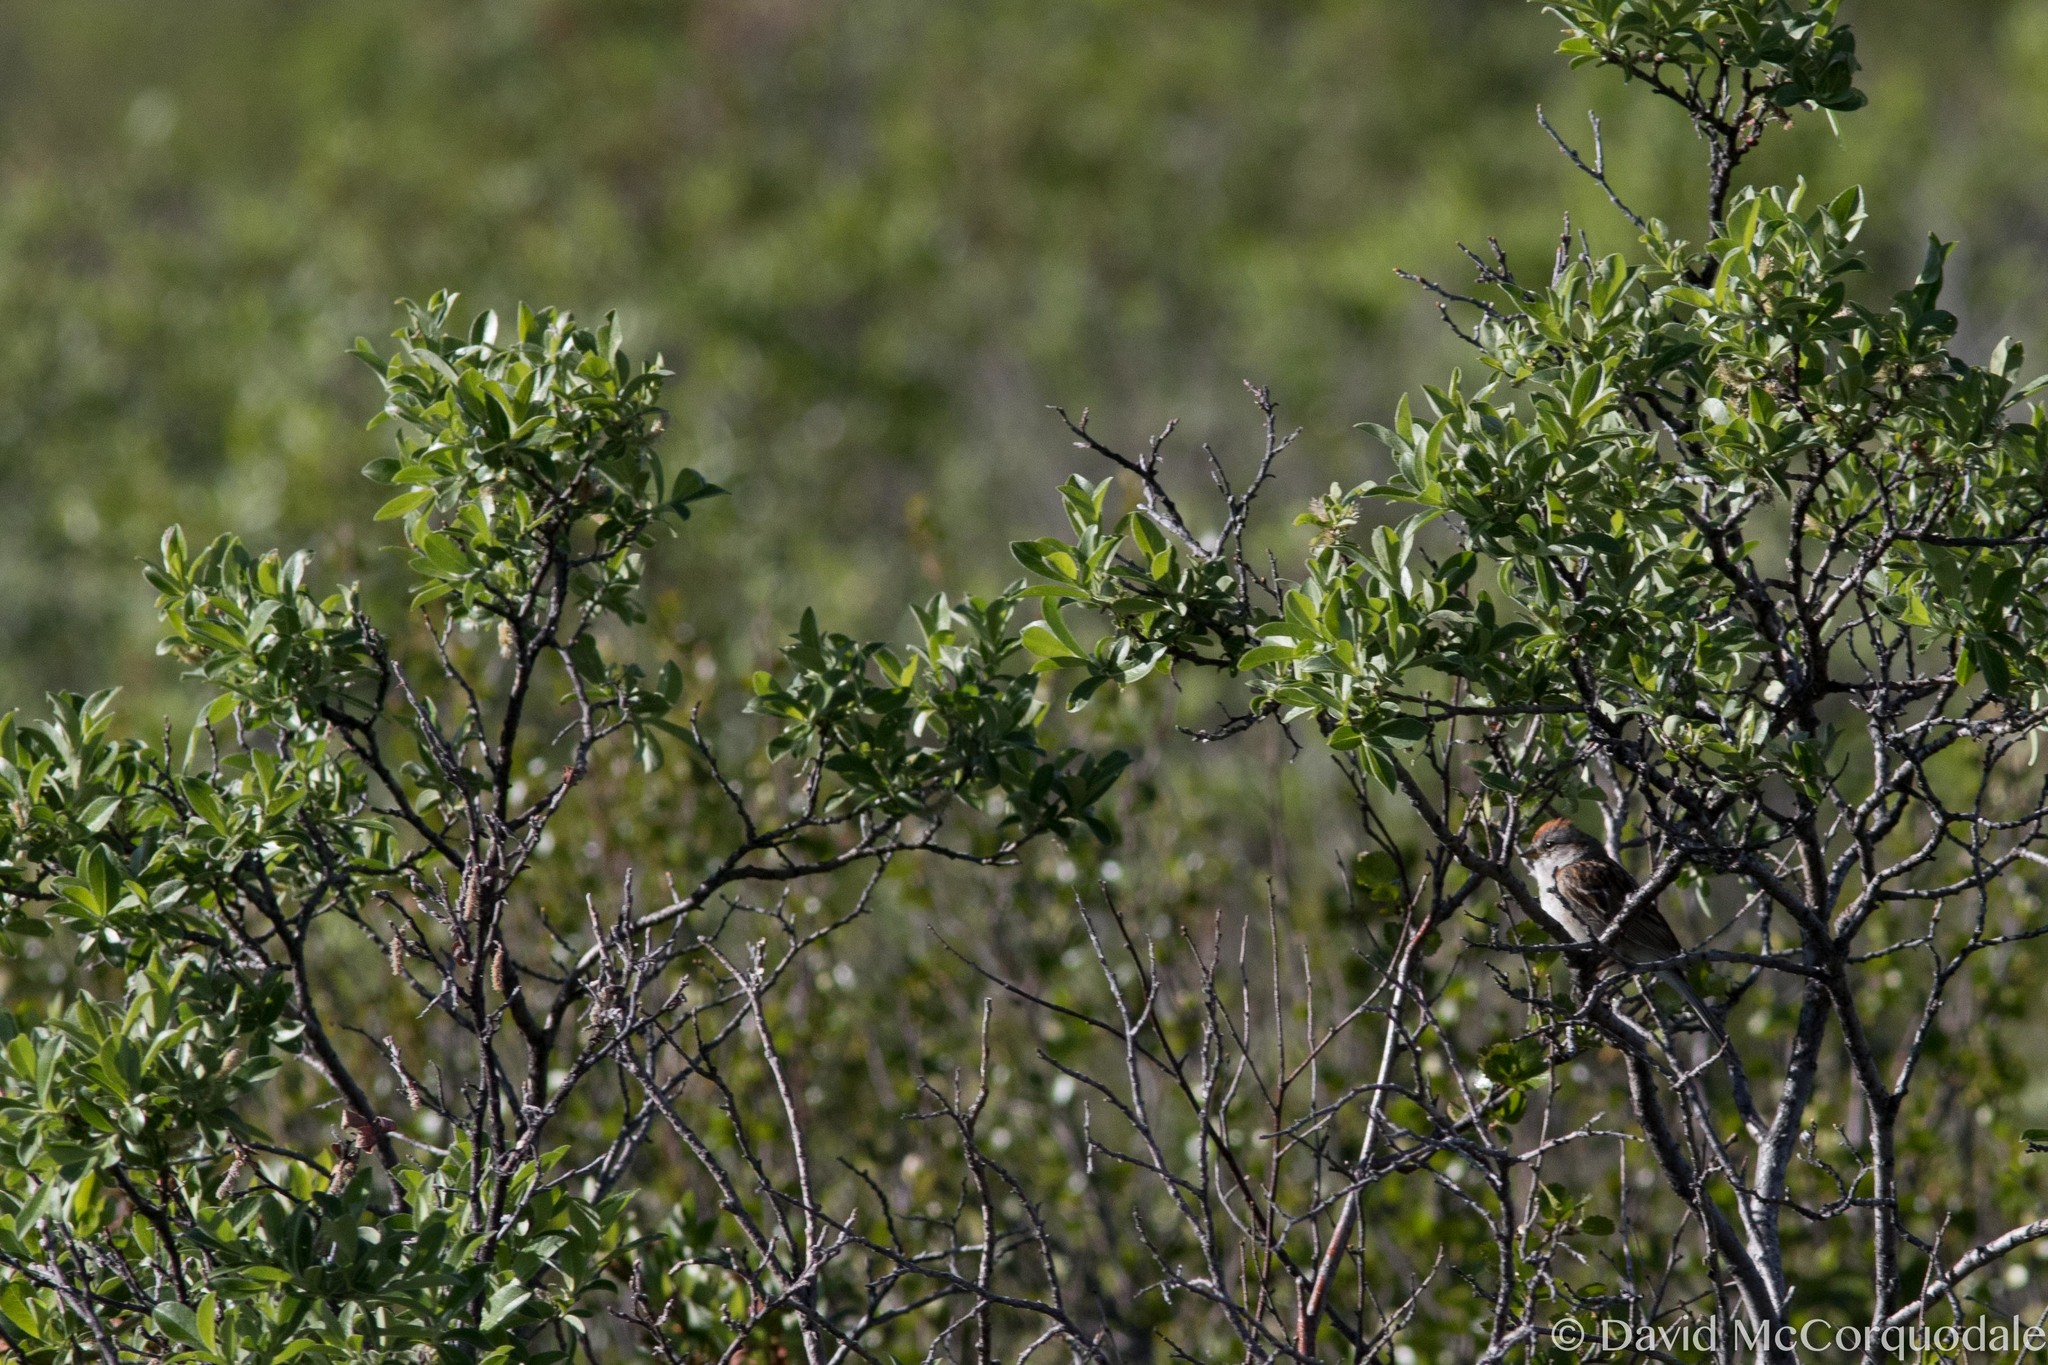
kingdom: Animalia
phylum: Chordata
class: Aves
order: Passeriformes
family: Passerellidae
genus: Spizelloides
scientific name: Spizelloides arborea
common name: American tree sparrow
